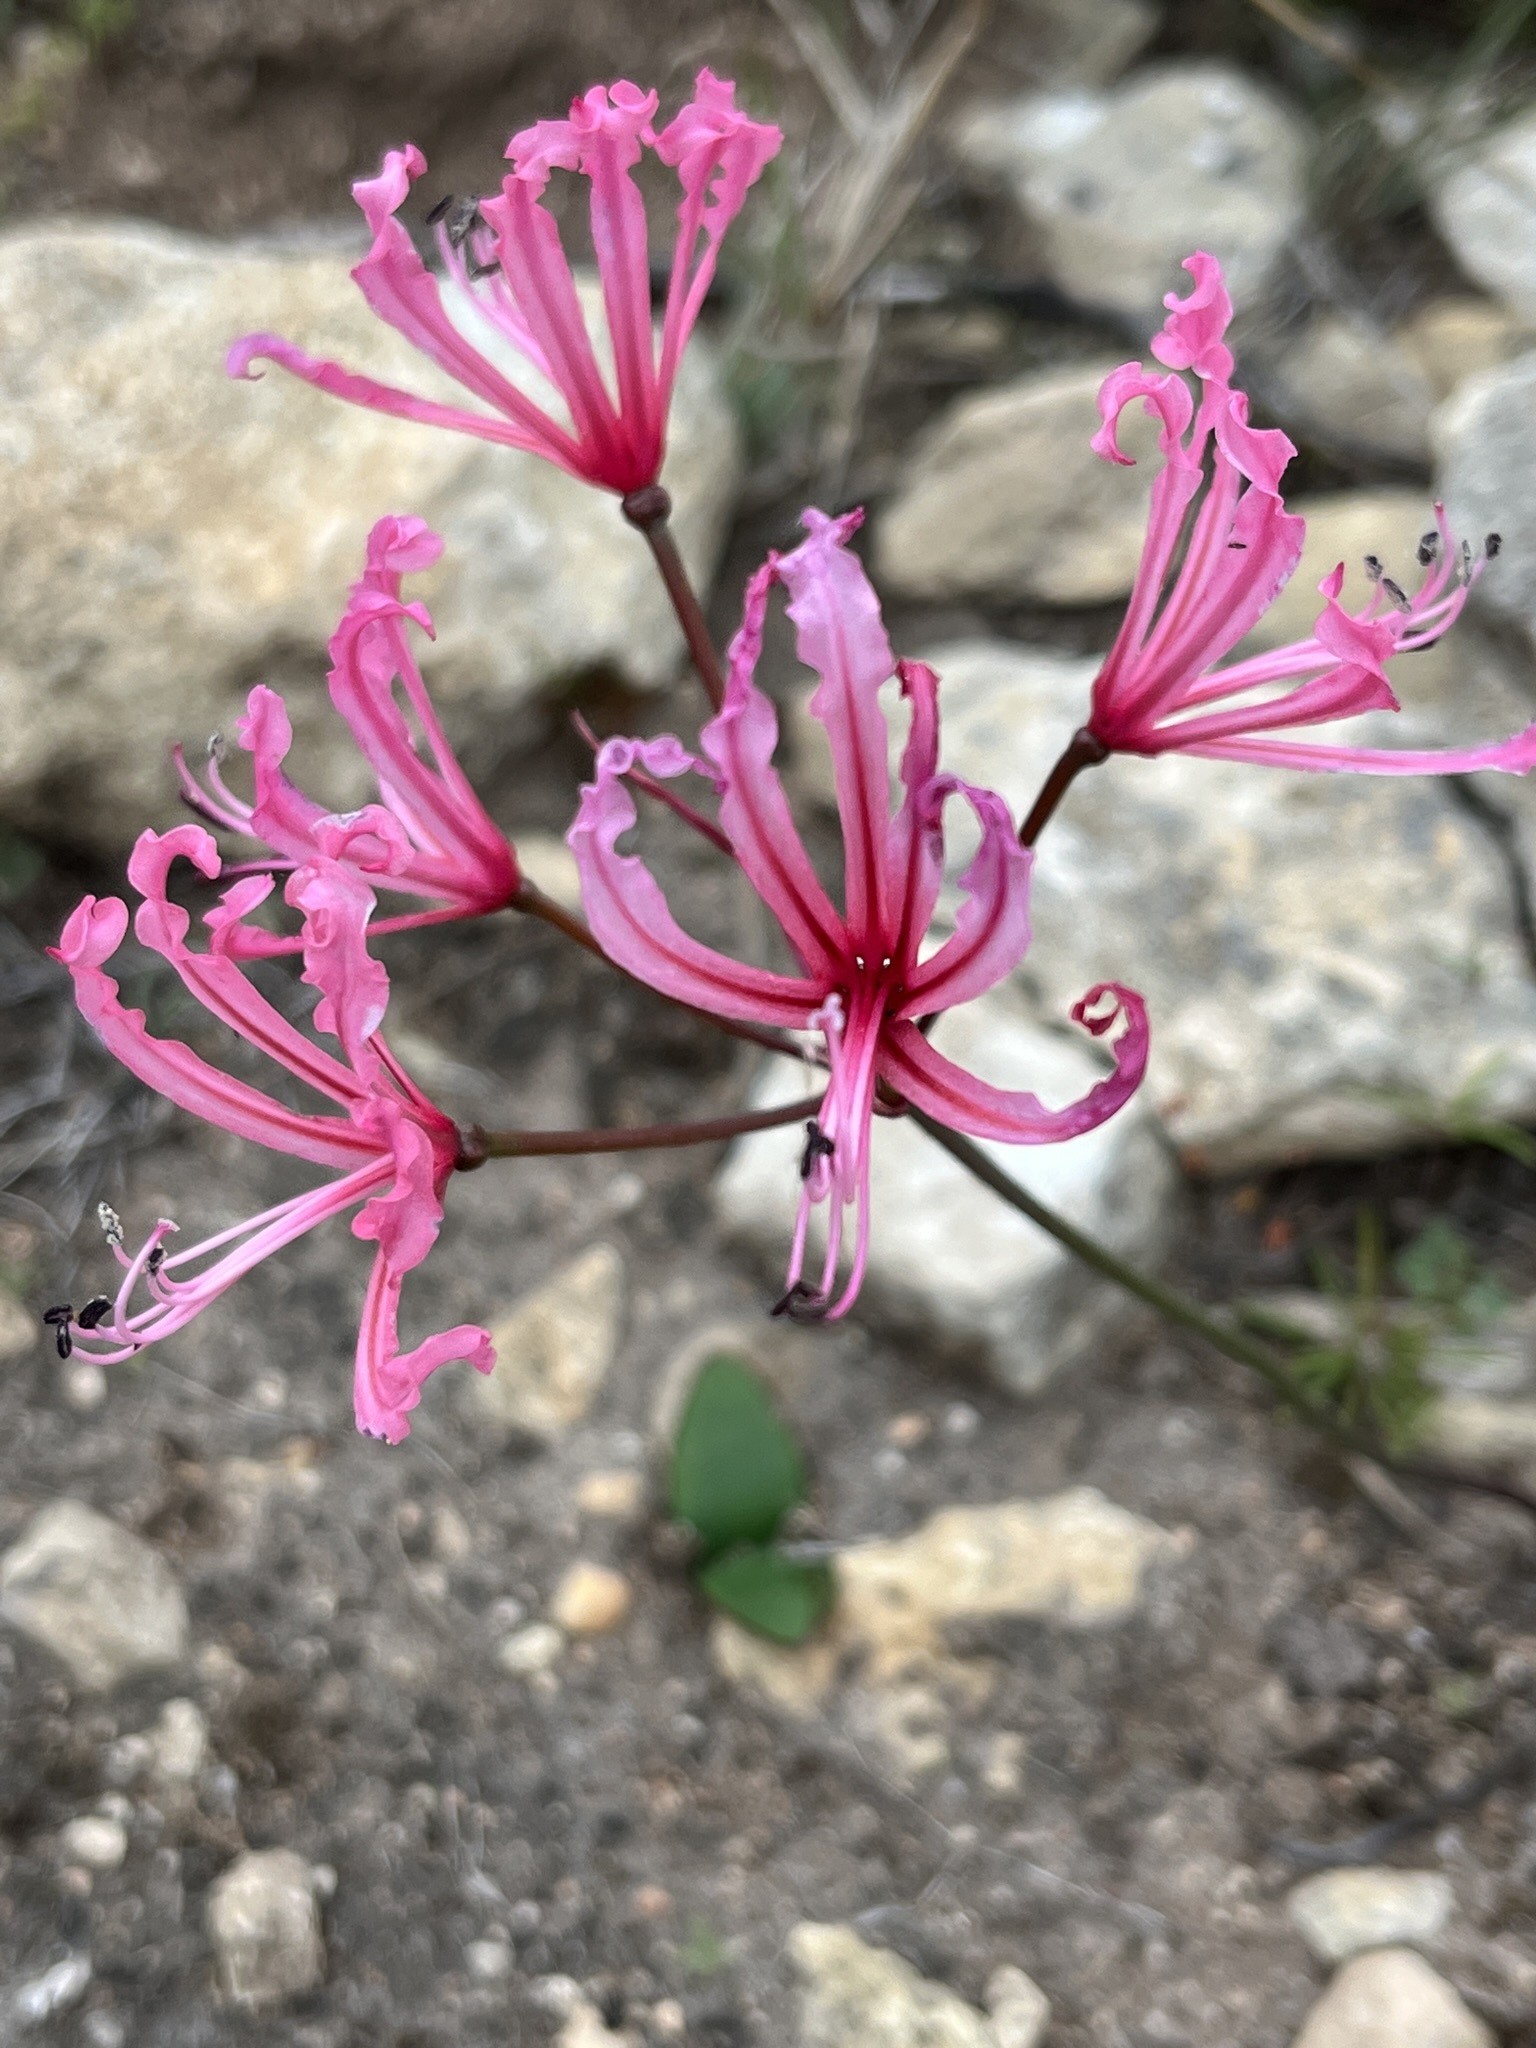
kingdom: Plantae
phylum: Tracheophyta
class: Liliopsida
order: Asparagales
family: Amaryllidaceae
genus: Nerine
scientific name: Nerine humilis
